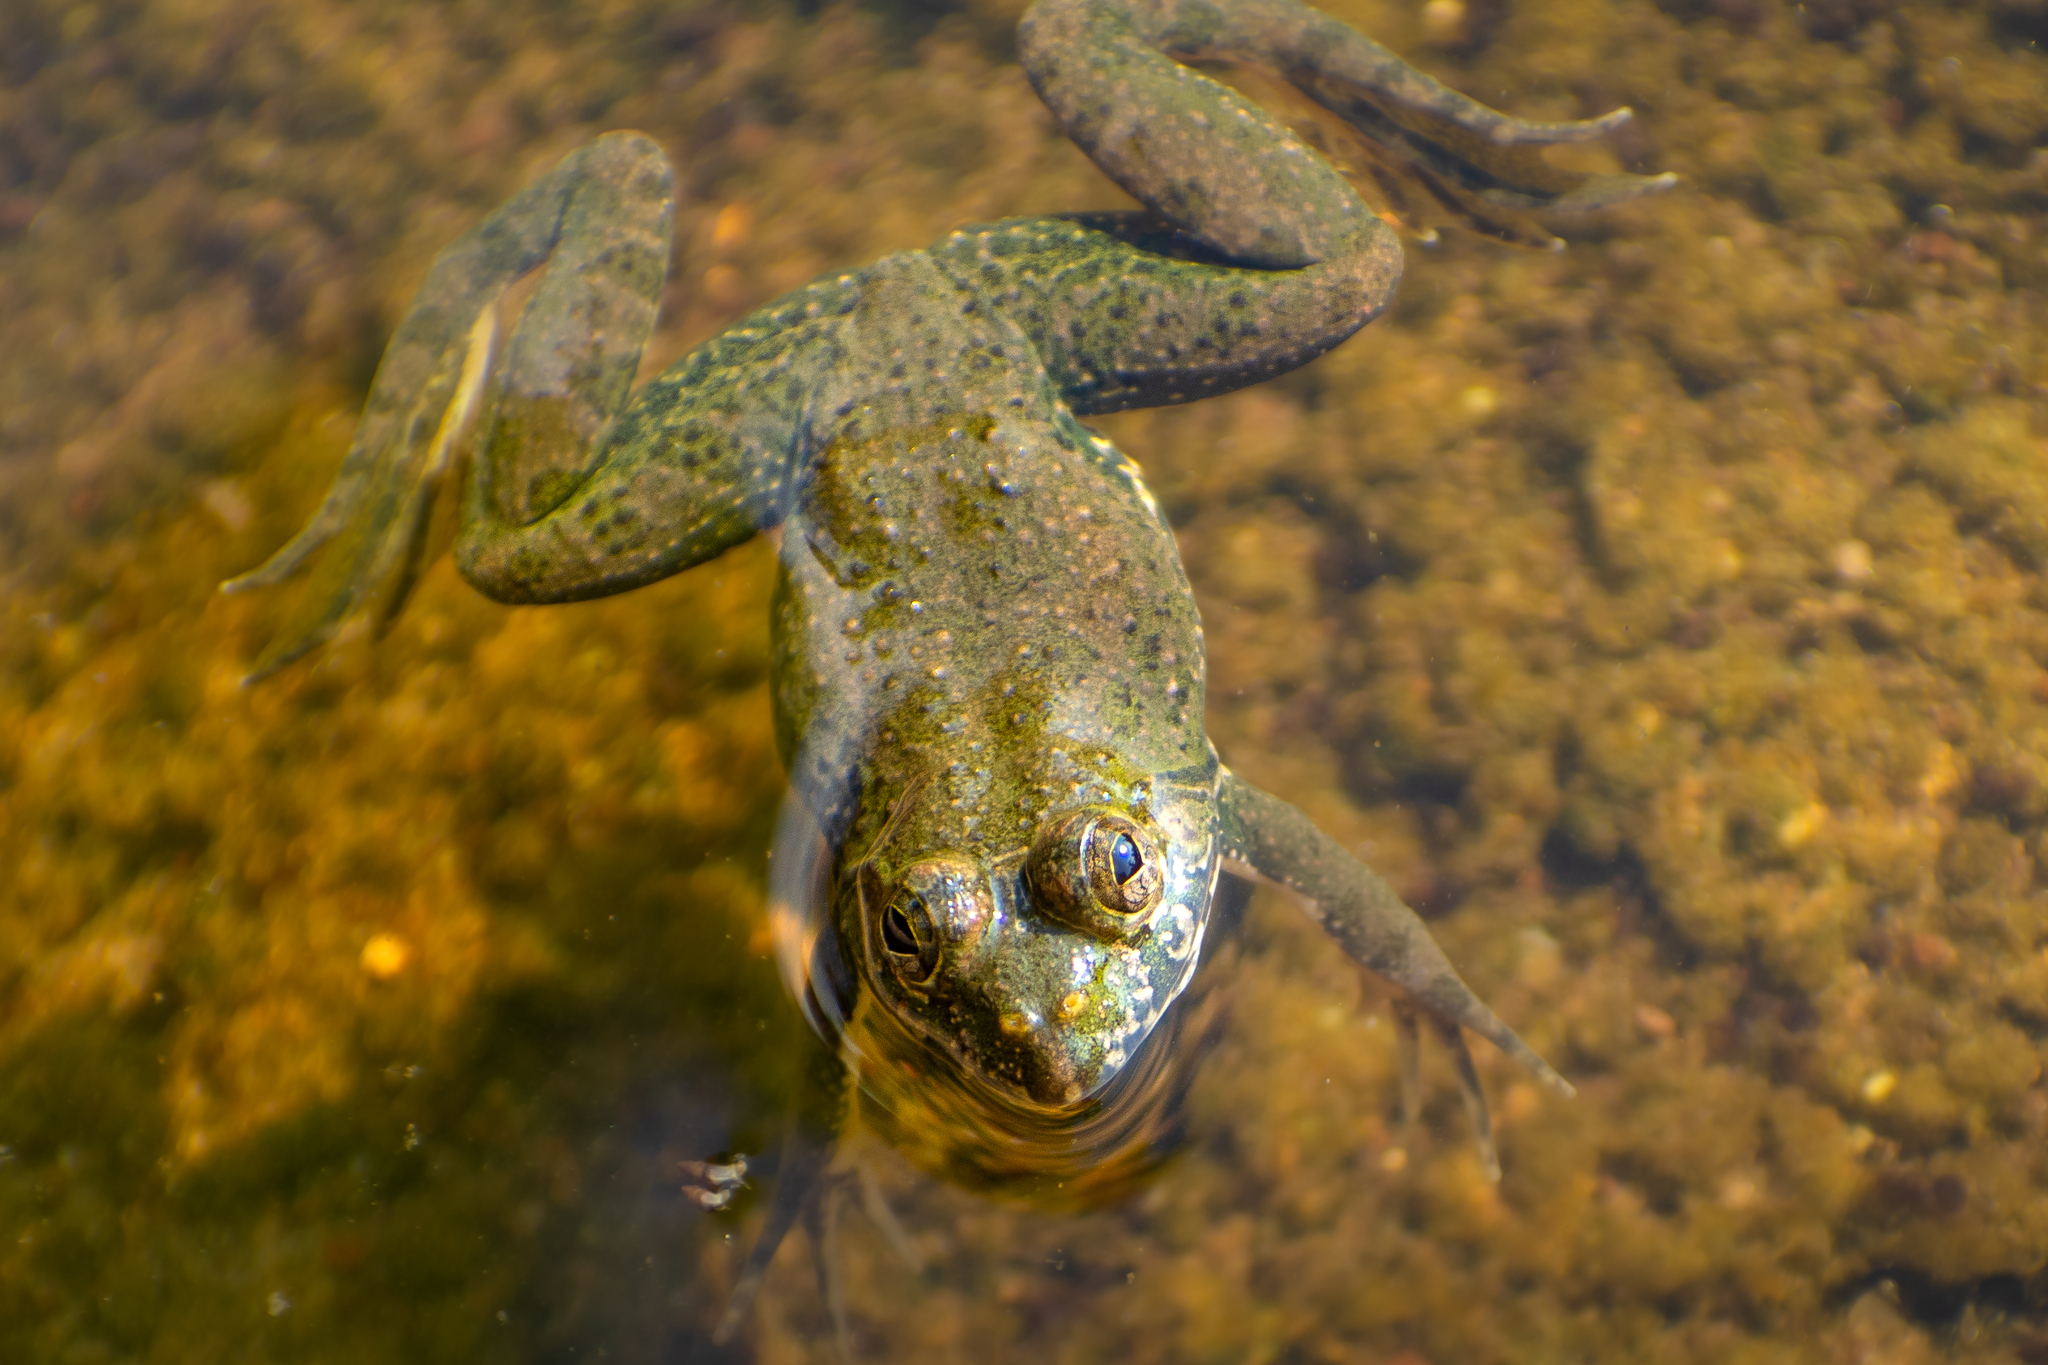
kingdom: Animalia
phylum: Chordata
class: Amphibia
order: Anura
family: Dicroglossidae
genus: Euphlyctis
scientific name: Euphlyctis cyanophlyctis
